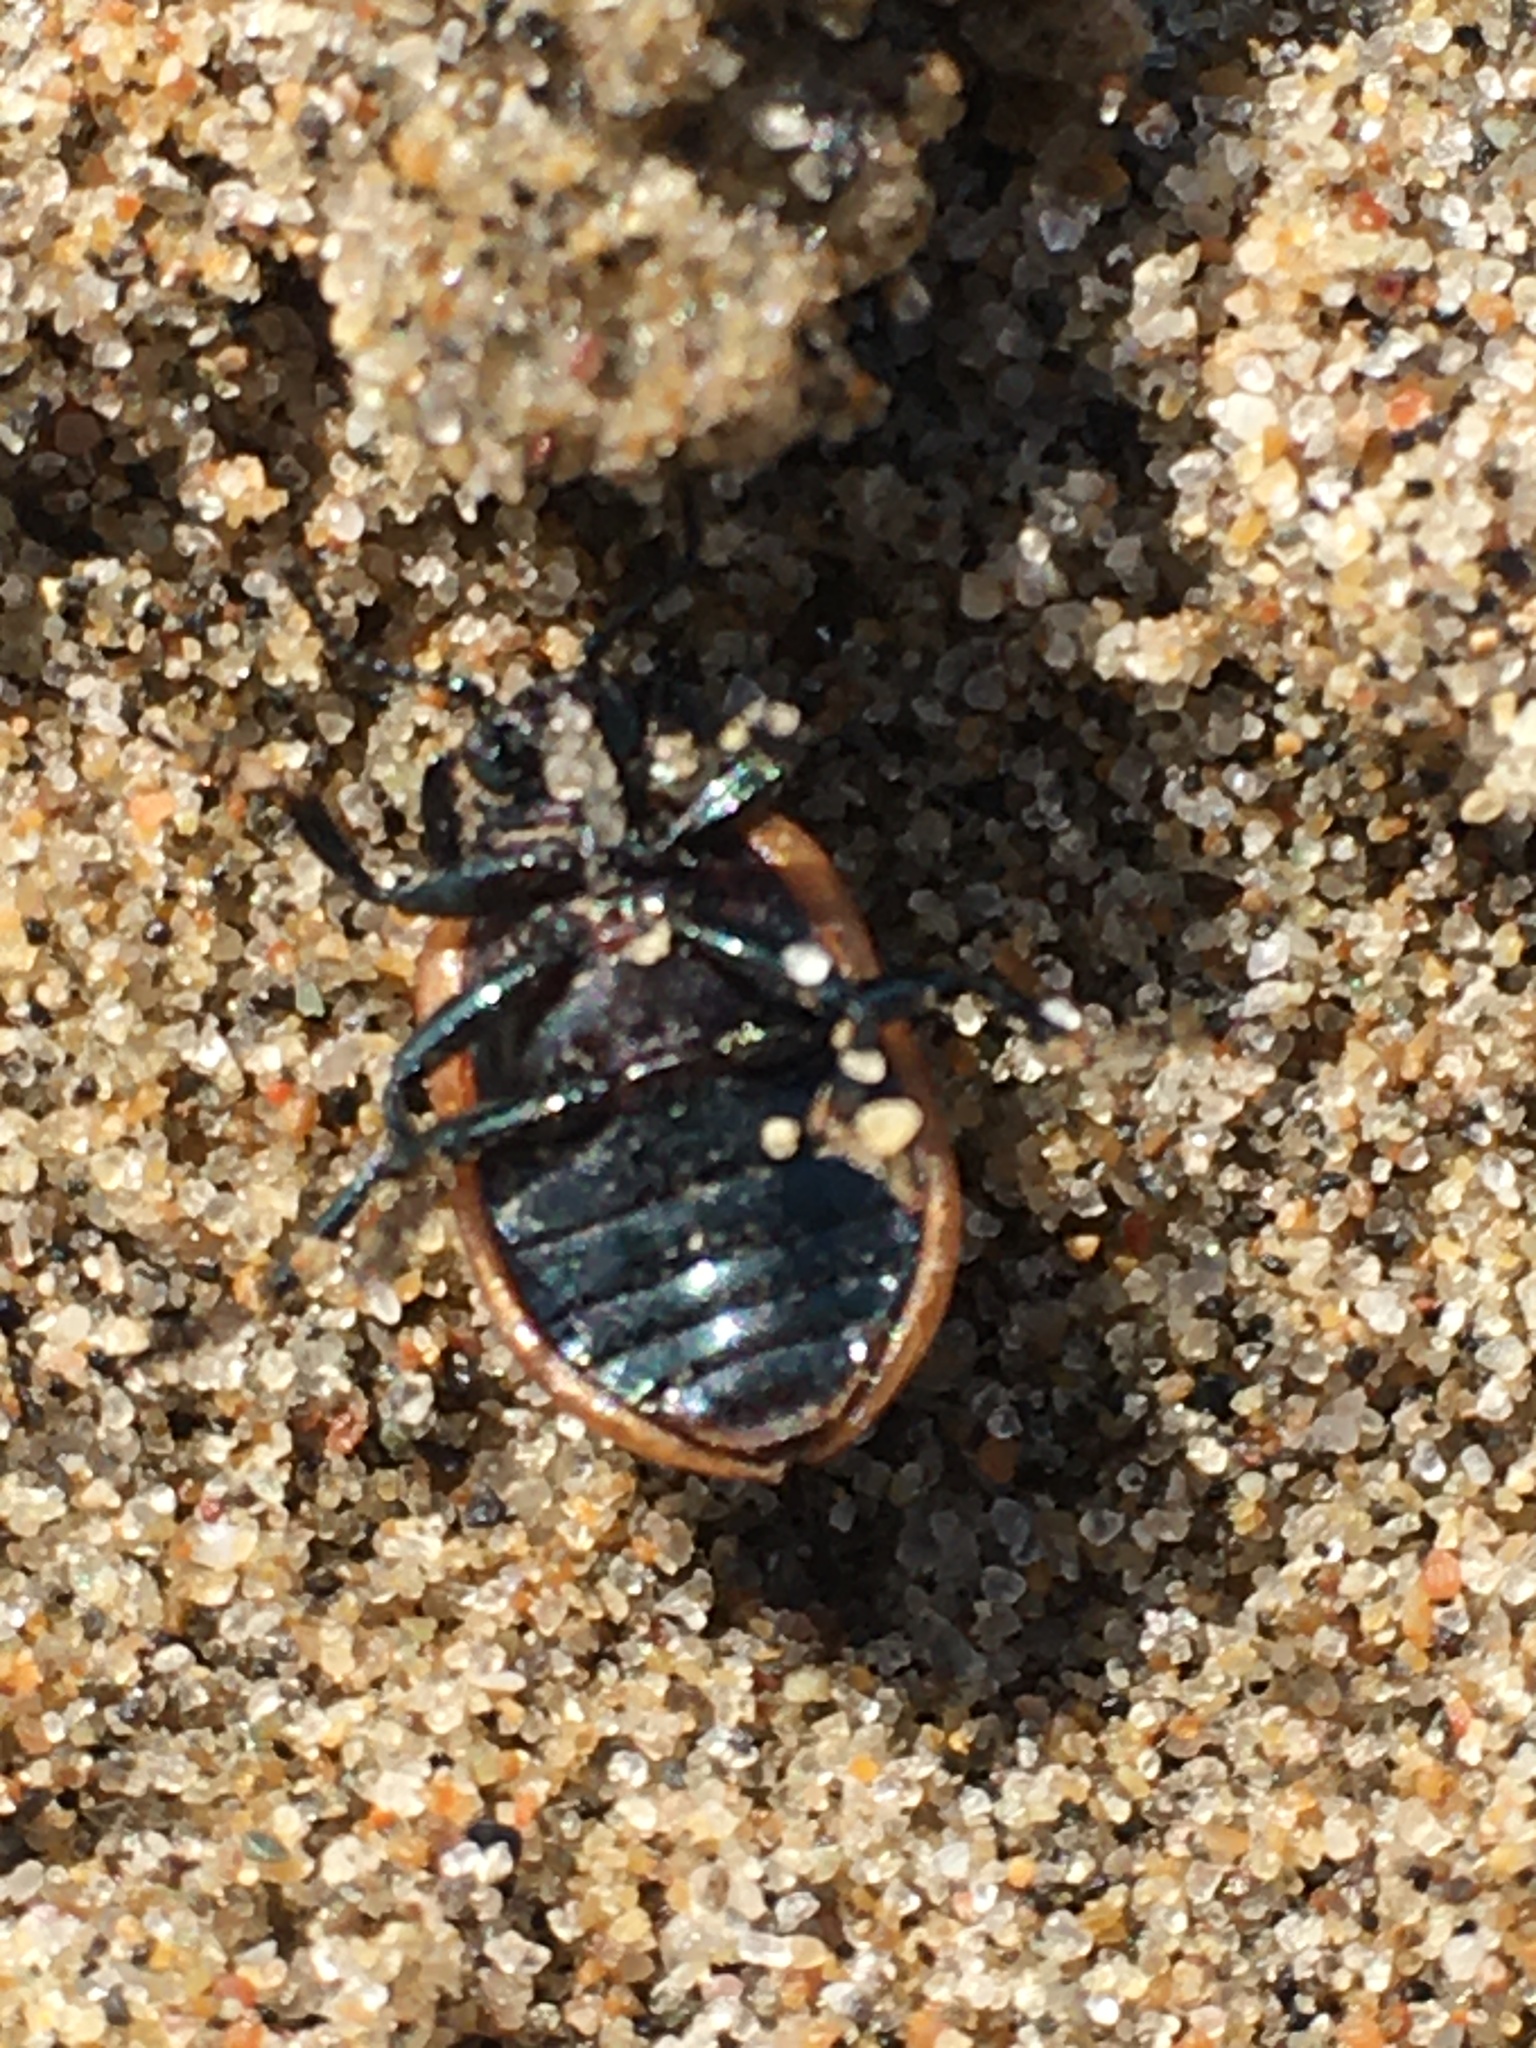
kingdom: Animalia
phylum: Arthropoda
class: Insecta
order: Coleoptera
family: Chrysomelidae
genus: Chrysomela
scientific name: Chrysomela crotchi
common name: Leaf beetle
